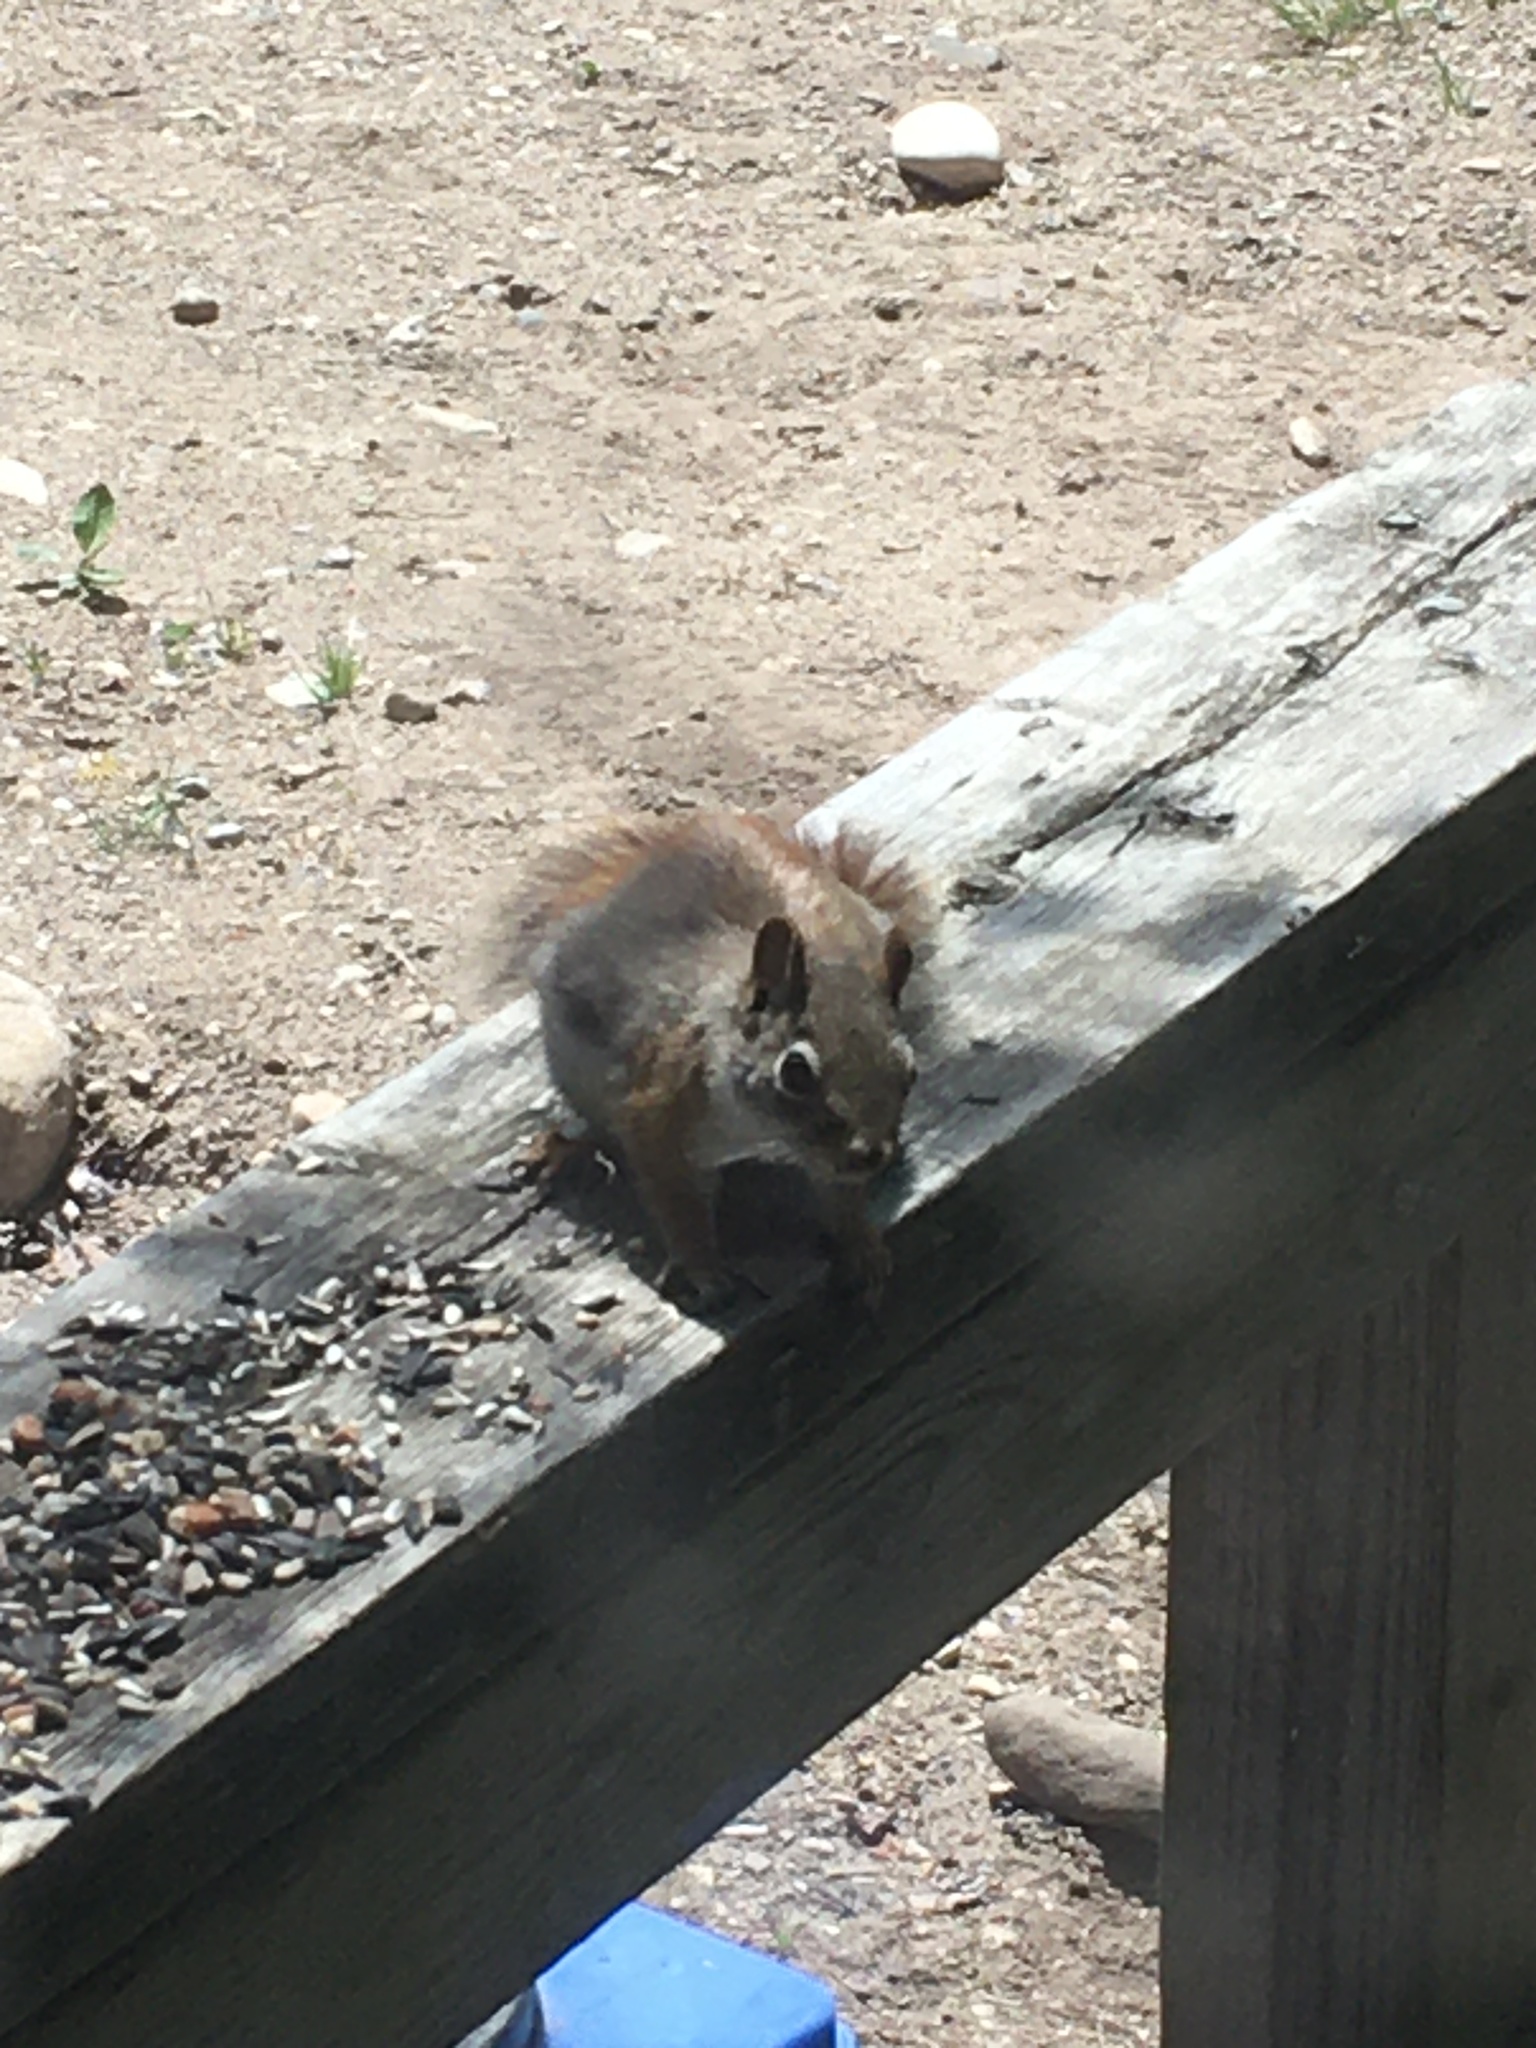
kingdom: Animalia
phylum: Chordata
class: Mammalia
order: Rodentia
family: Sciuridae
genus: Tamiasciurus
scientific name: Tamiasciurus hudsonicus
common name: Red squirrel
